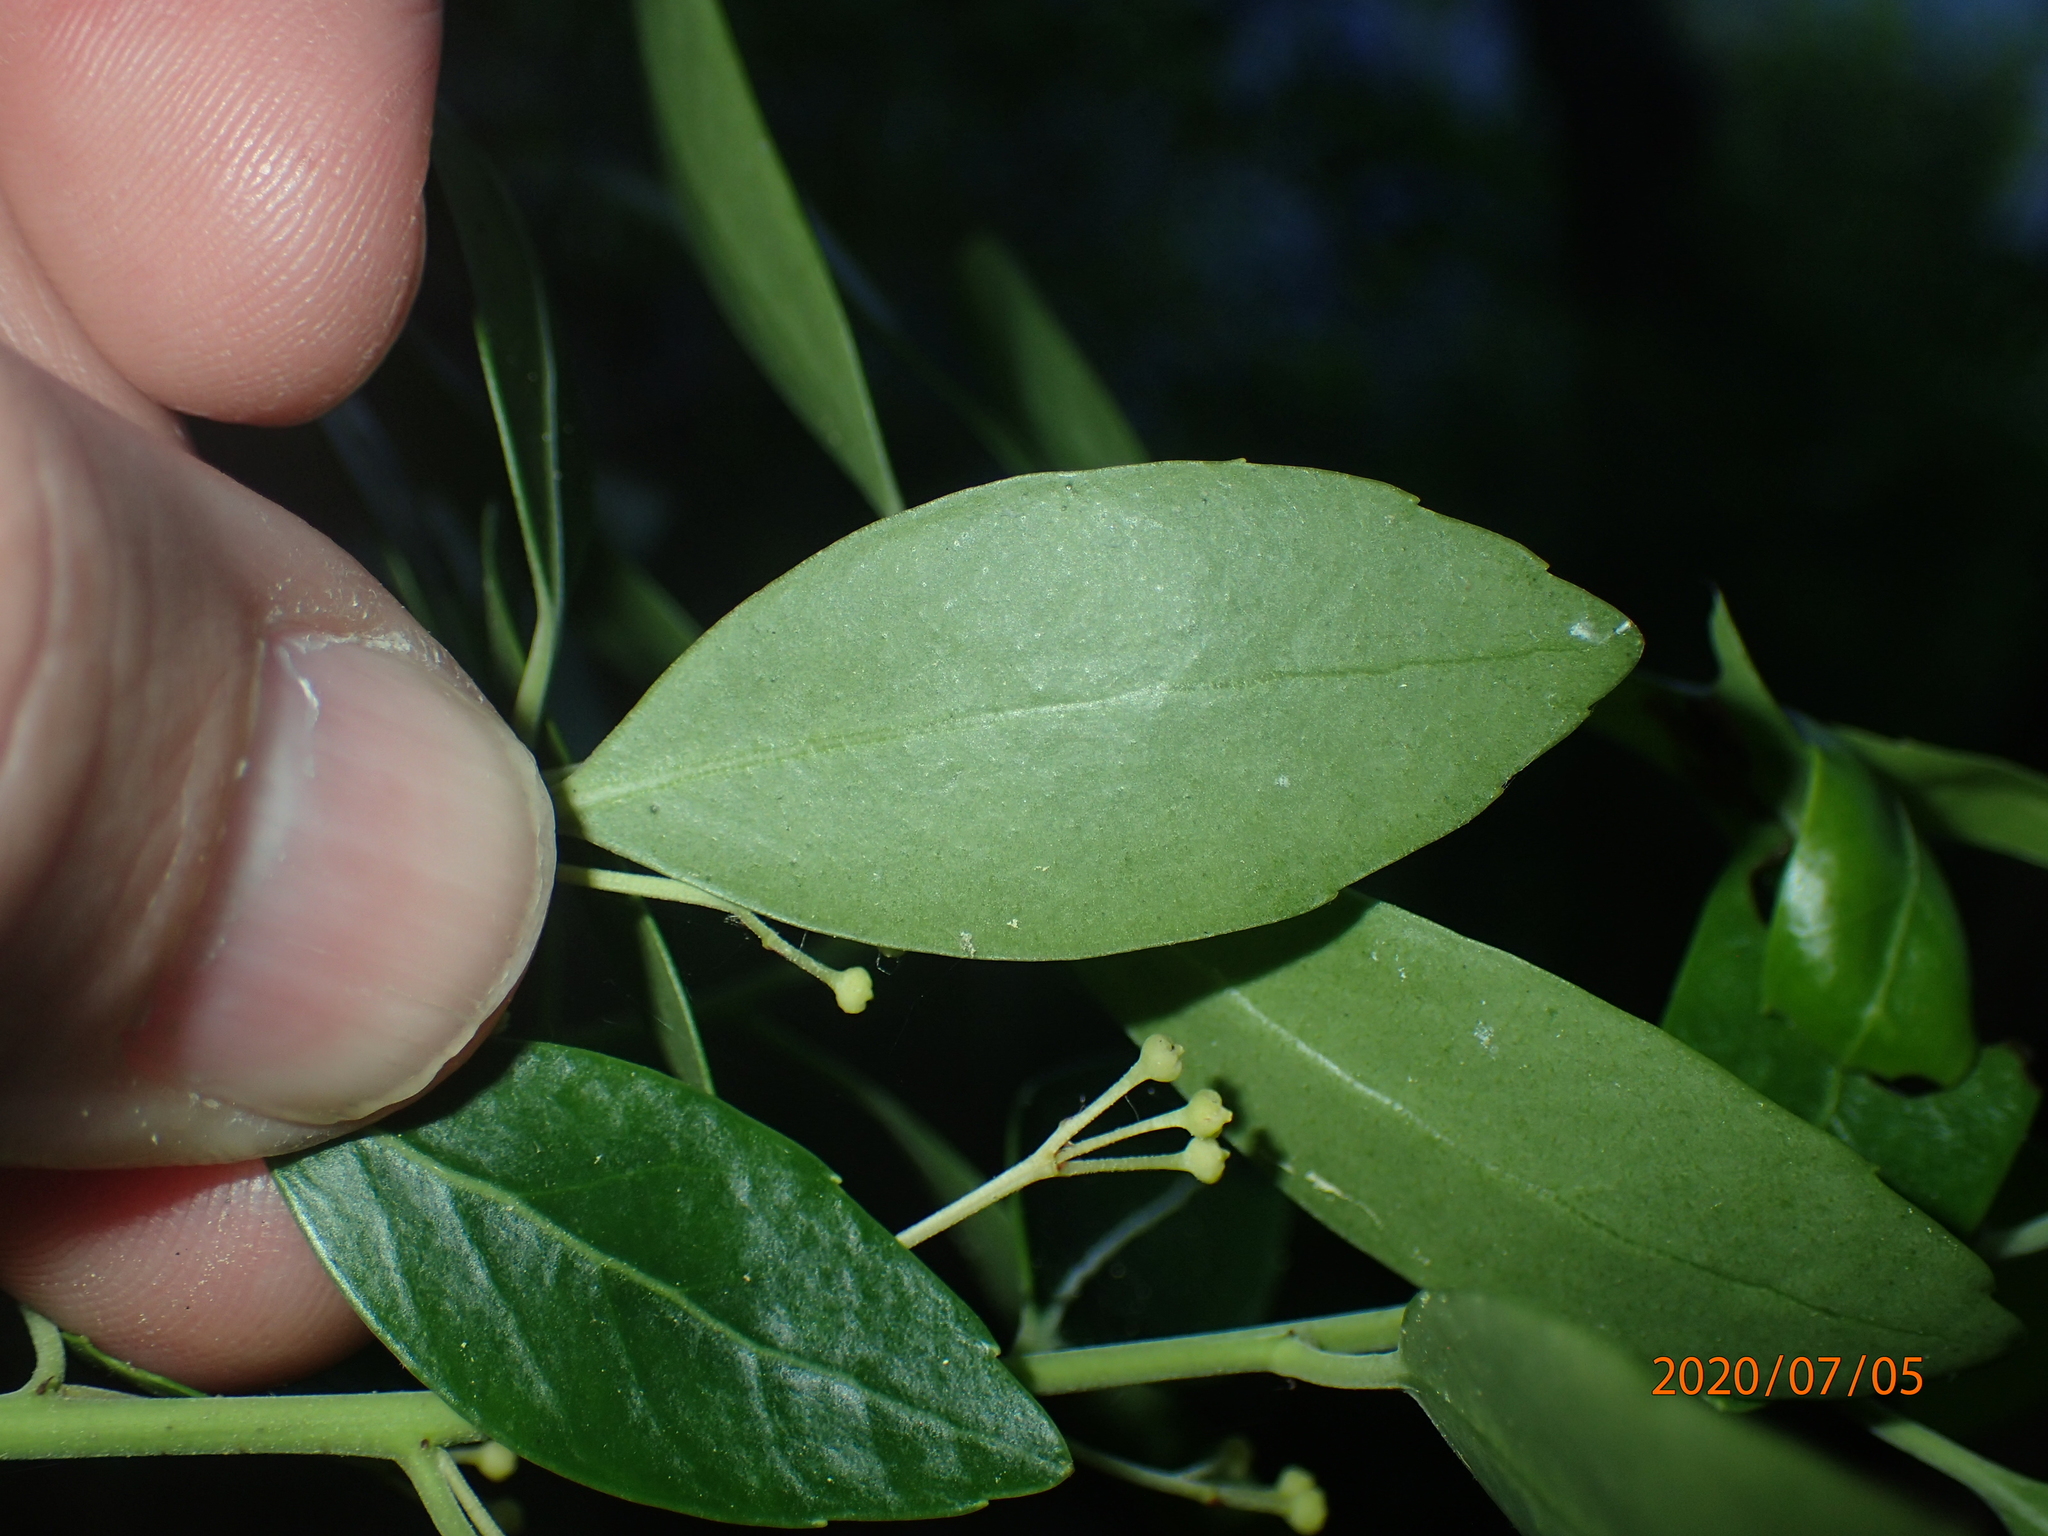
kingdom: Plantae
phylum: Tracheophyta
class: Magnoliopsida
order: Aquifoliales
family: Aquifoliaceae
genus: Ilex
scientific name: Ilex glabra
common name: Bitter gallberry
